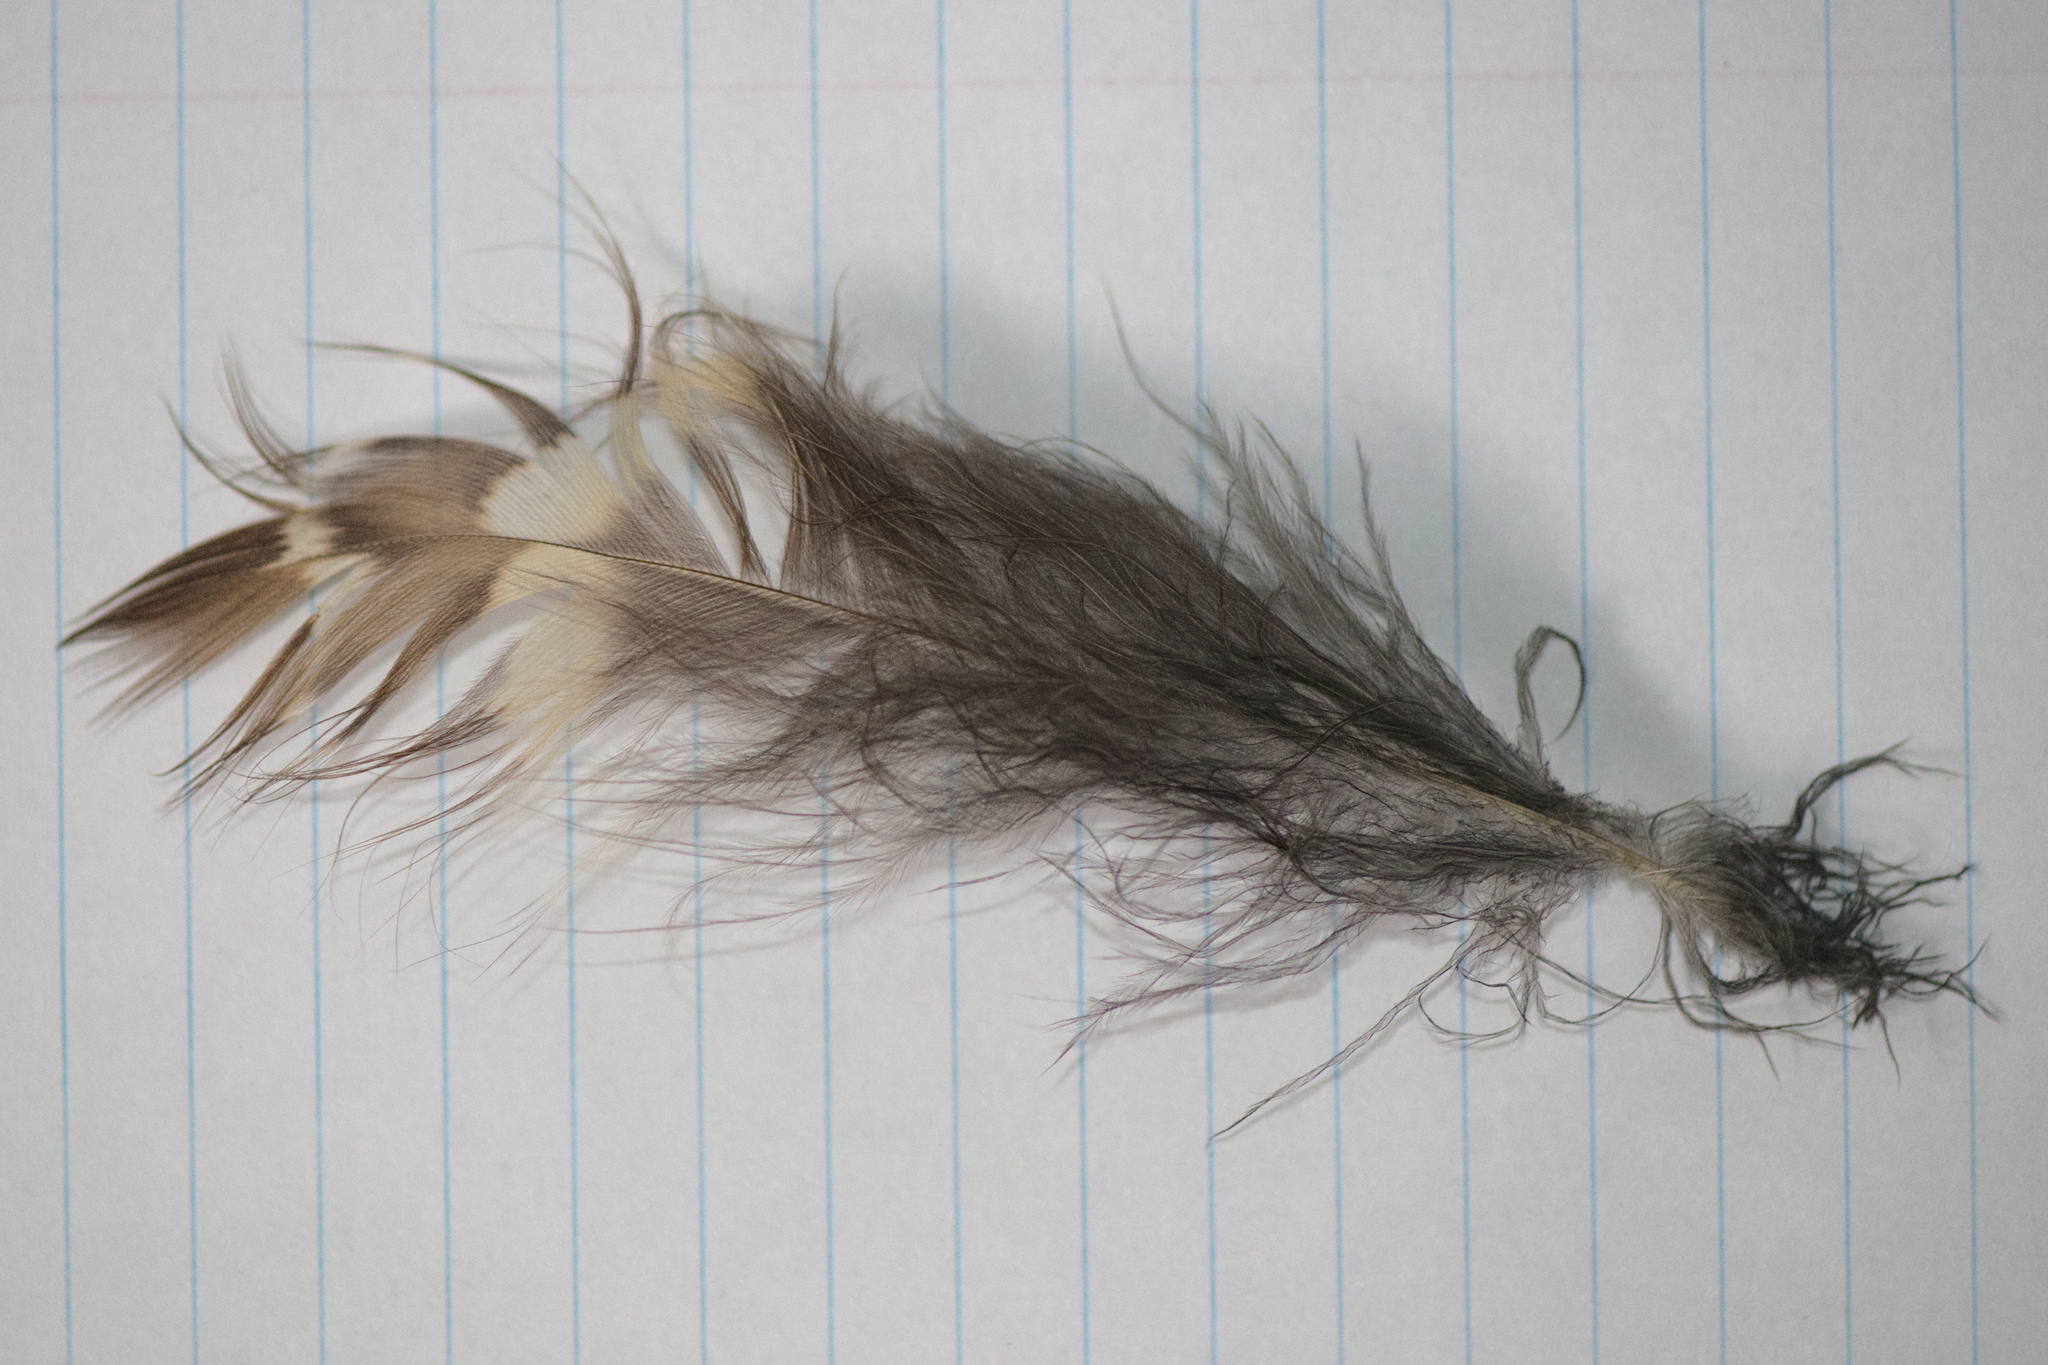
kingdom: Animalia
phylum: Chordata
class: Aves
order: Strigiformes
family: Strigidae
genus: Strix
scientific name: Strix varia
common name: Barred owl
